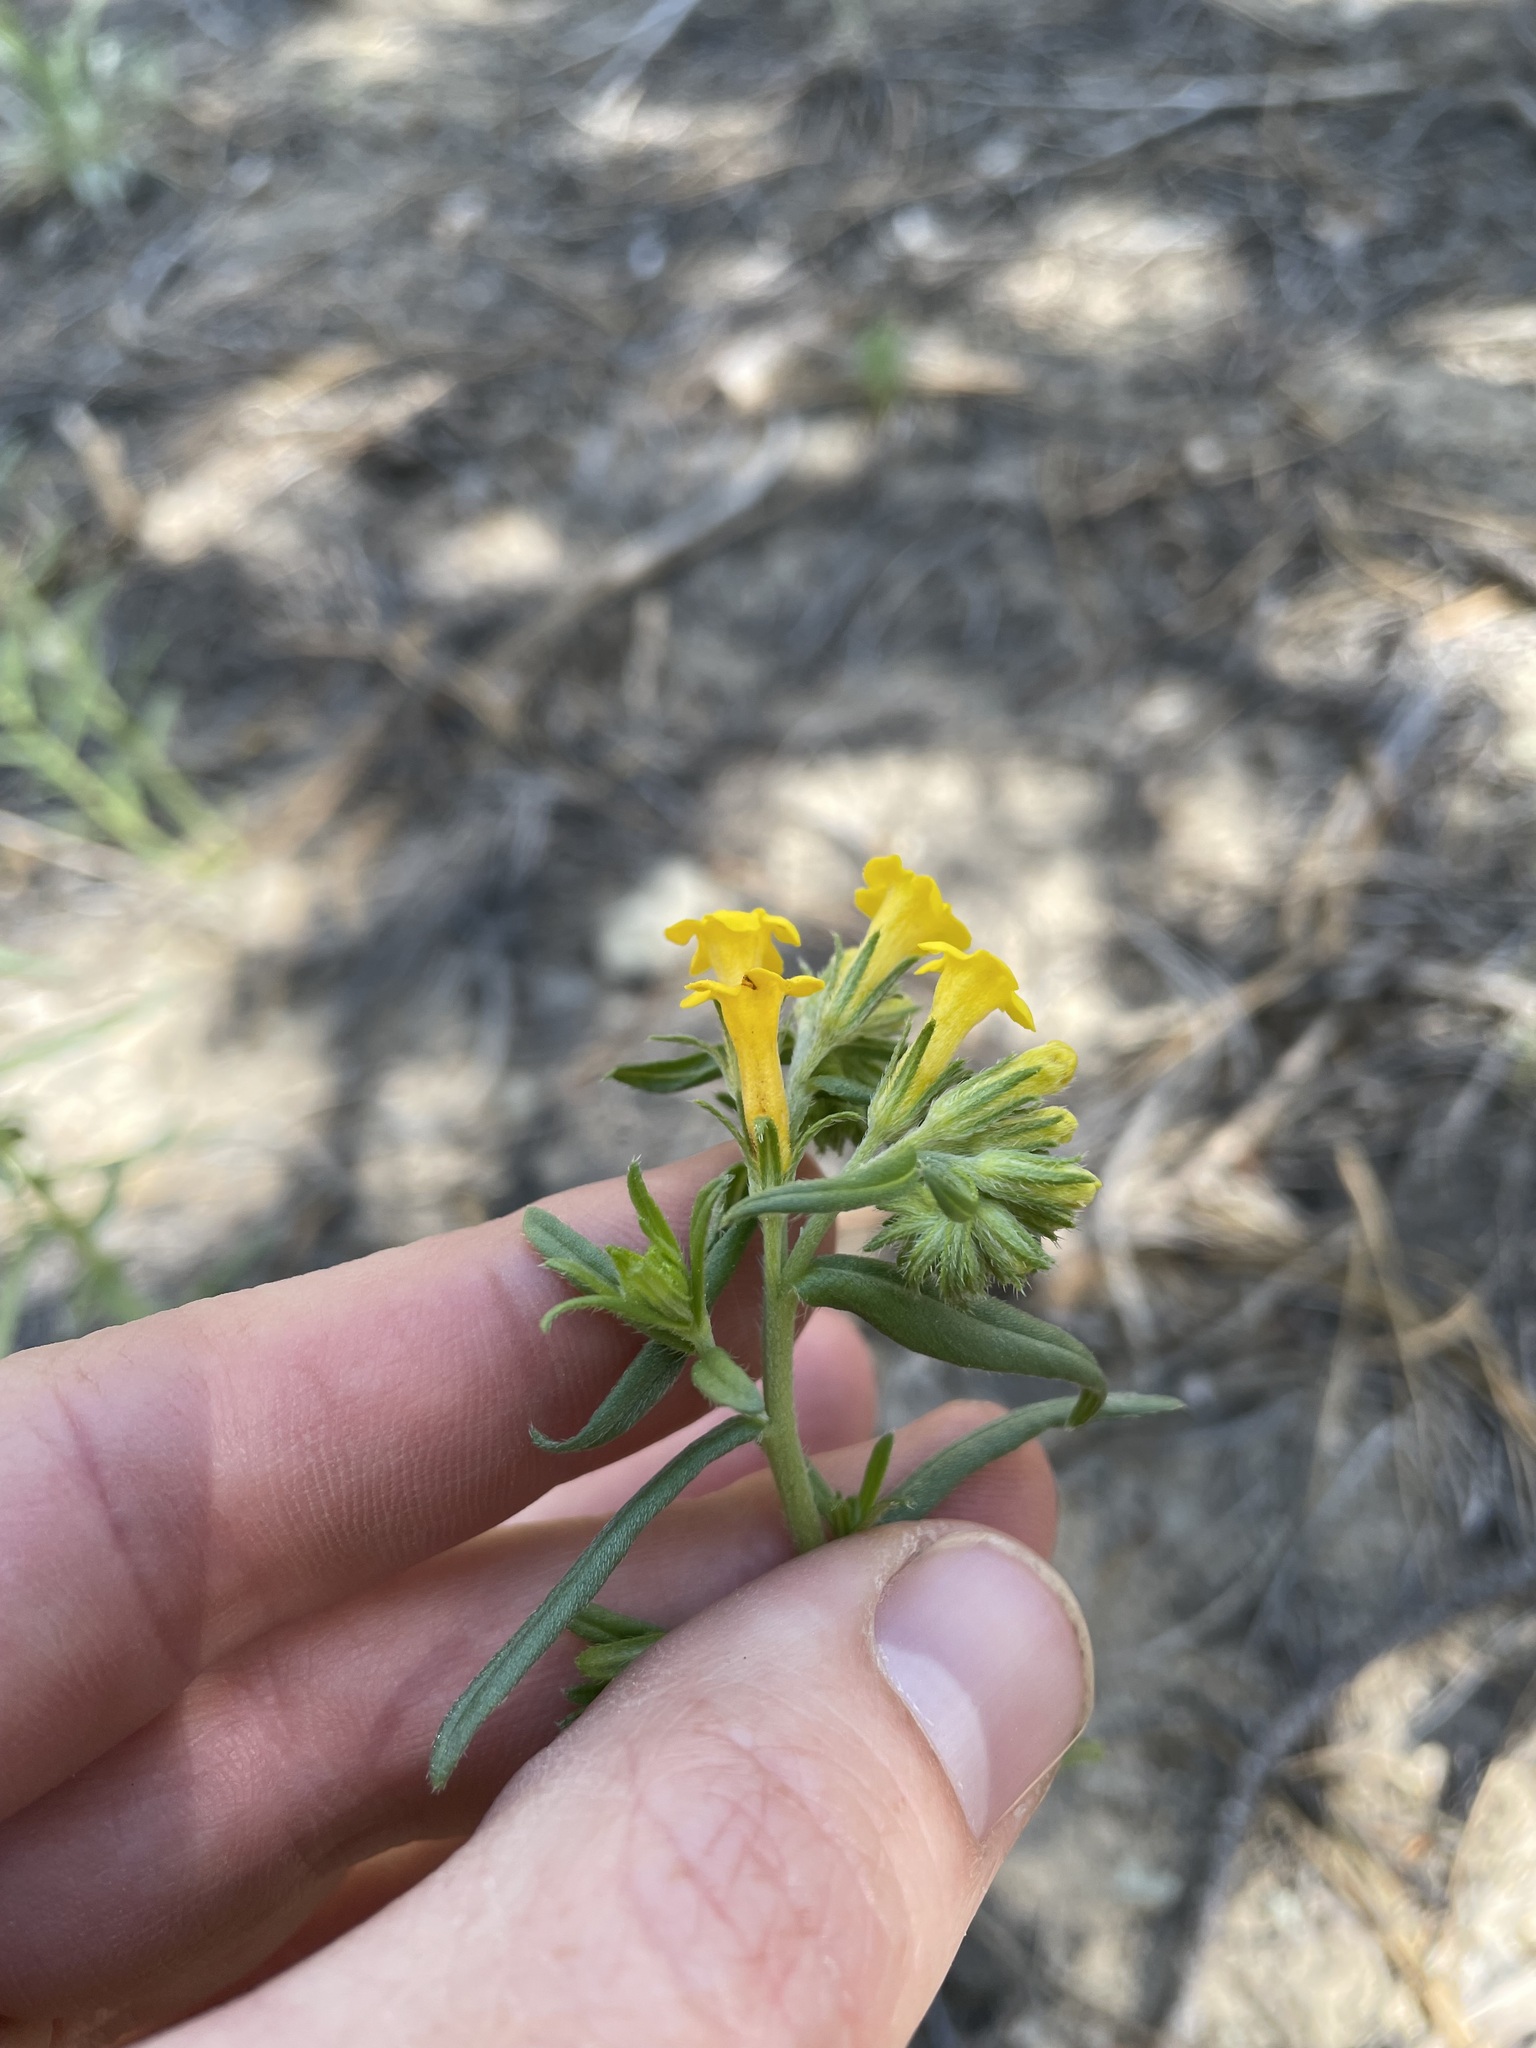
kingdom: Plantae
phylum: Tracheophyta
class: Magnoliopsida
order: Boraginales
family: Boraginaceae
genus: Lithospermum
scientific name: Lithospermum multiflorum
